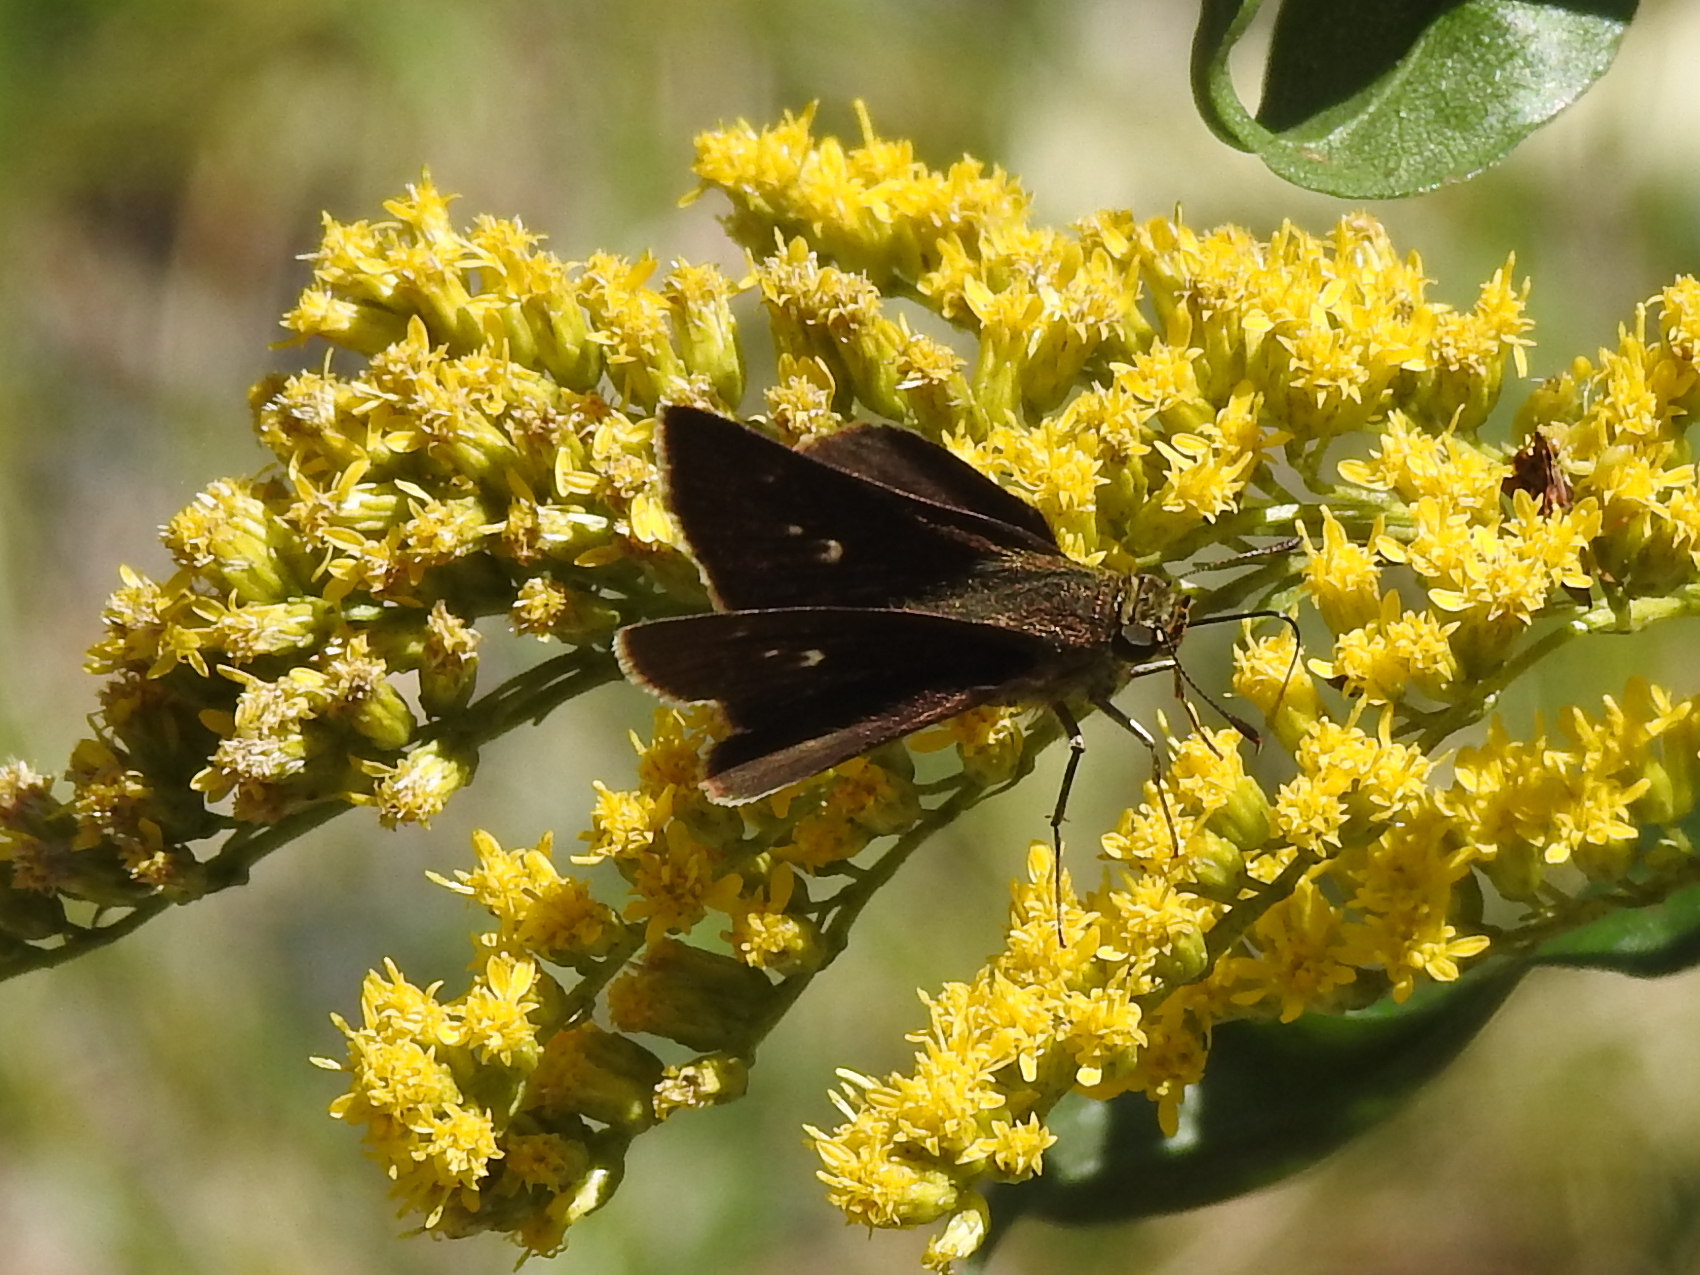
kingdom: Animalia
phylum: Arthropoda
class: Insecta
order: Lepidoptera
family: Hesperiidae
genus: Euphyes
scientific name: Euphyes vestris
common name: Dun skipper
